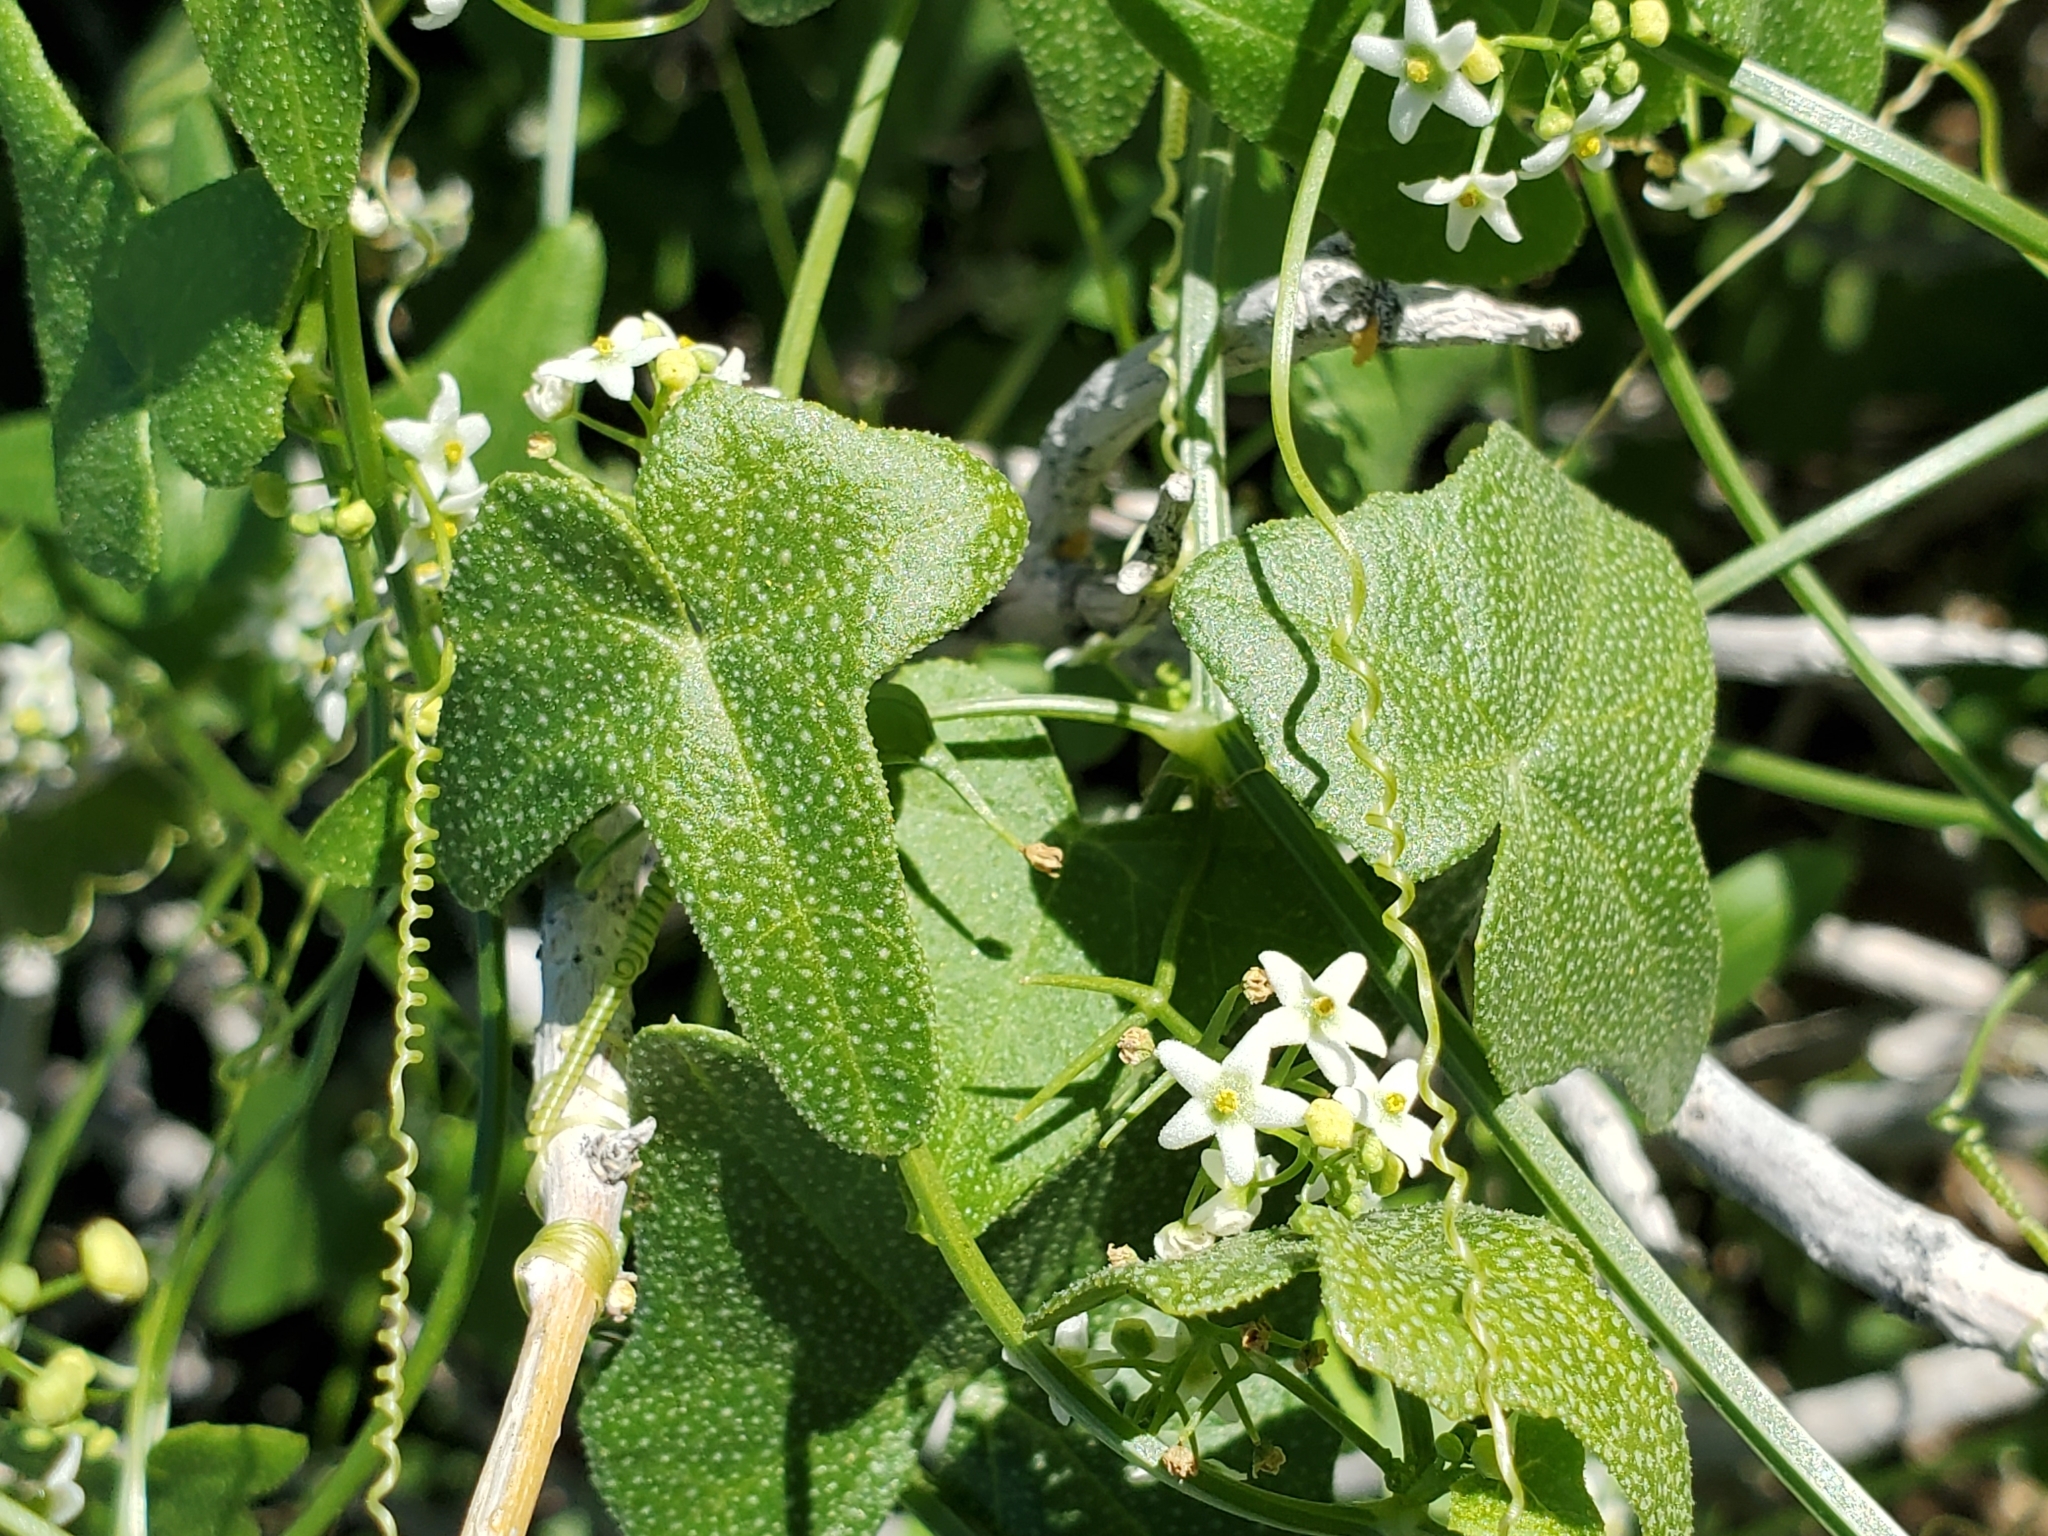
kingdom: Plantae
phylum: Tracheophyta
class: Magnoliopsida
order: Cucurbitales
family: Cucurbitaceae
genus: Echinopepon
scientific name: Echinopepon bigelovii
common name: Desert starvine
